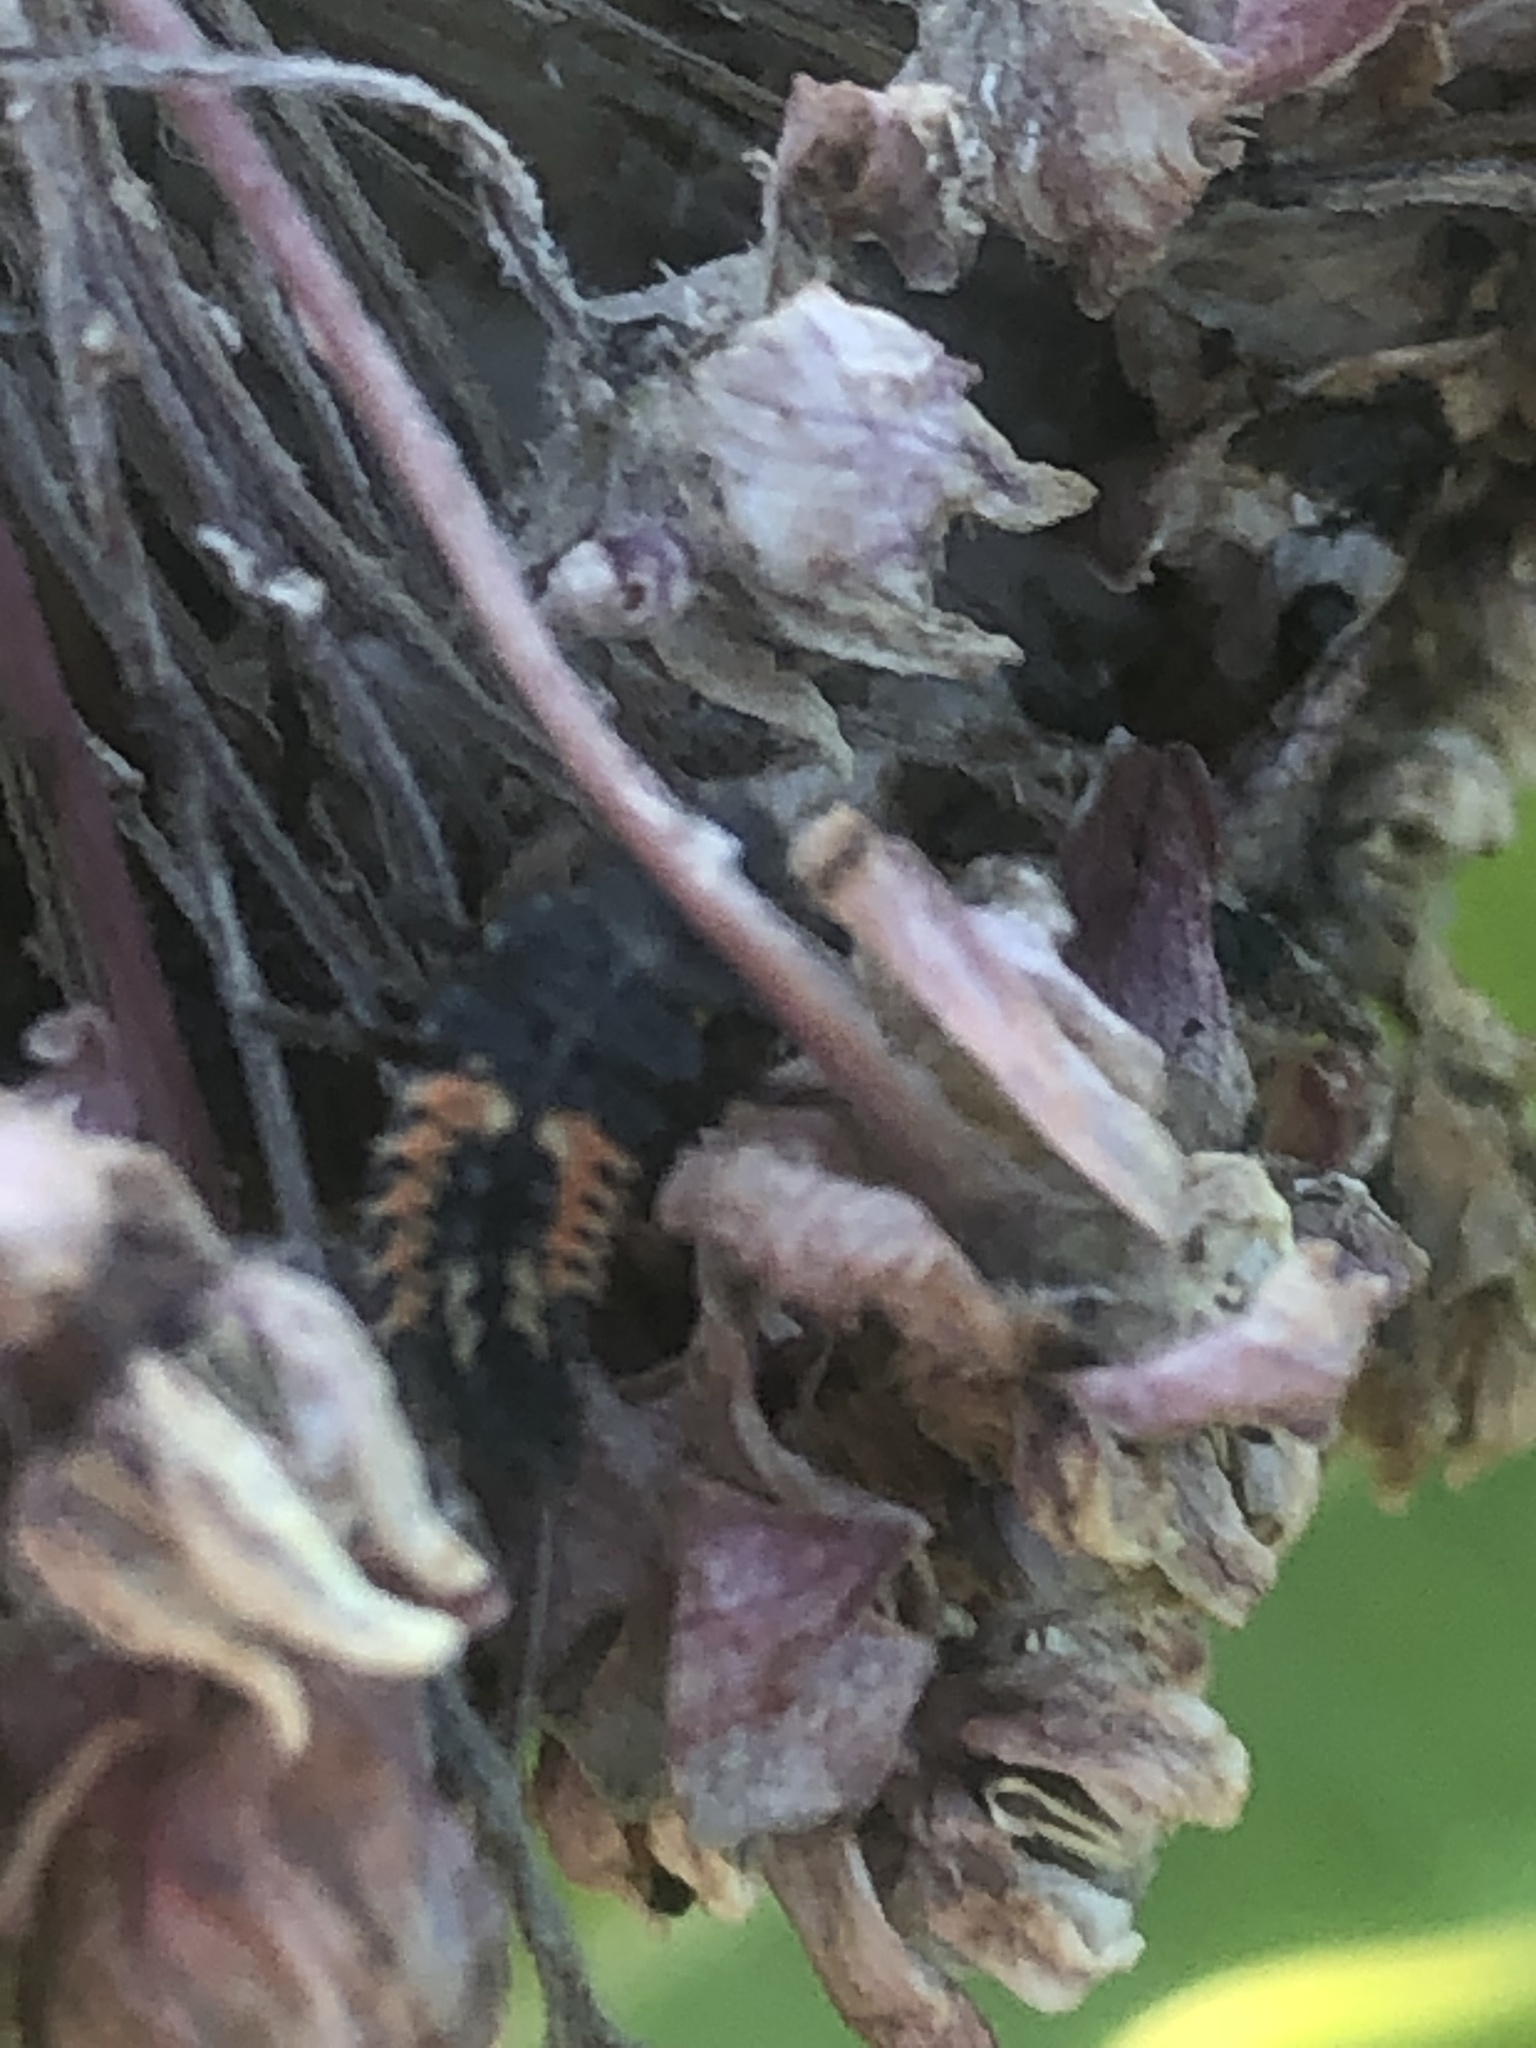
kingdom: Animalia
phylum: Arthropoda
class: Insecta
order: Coleoptera
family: Coccinellidae
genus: Harmonia
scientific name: Harmonia axyridis
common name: Harlequin ladybird
